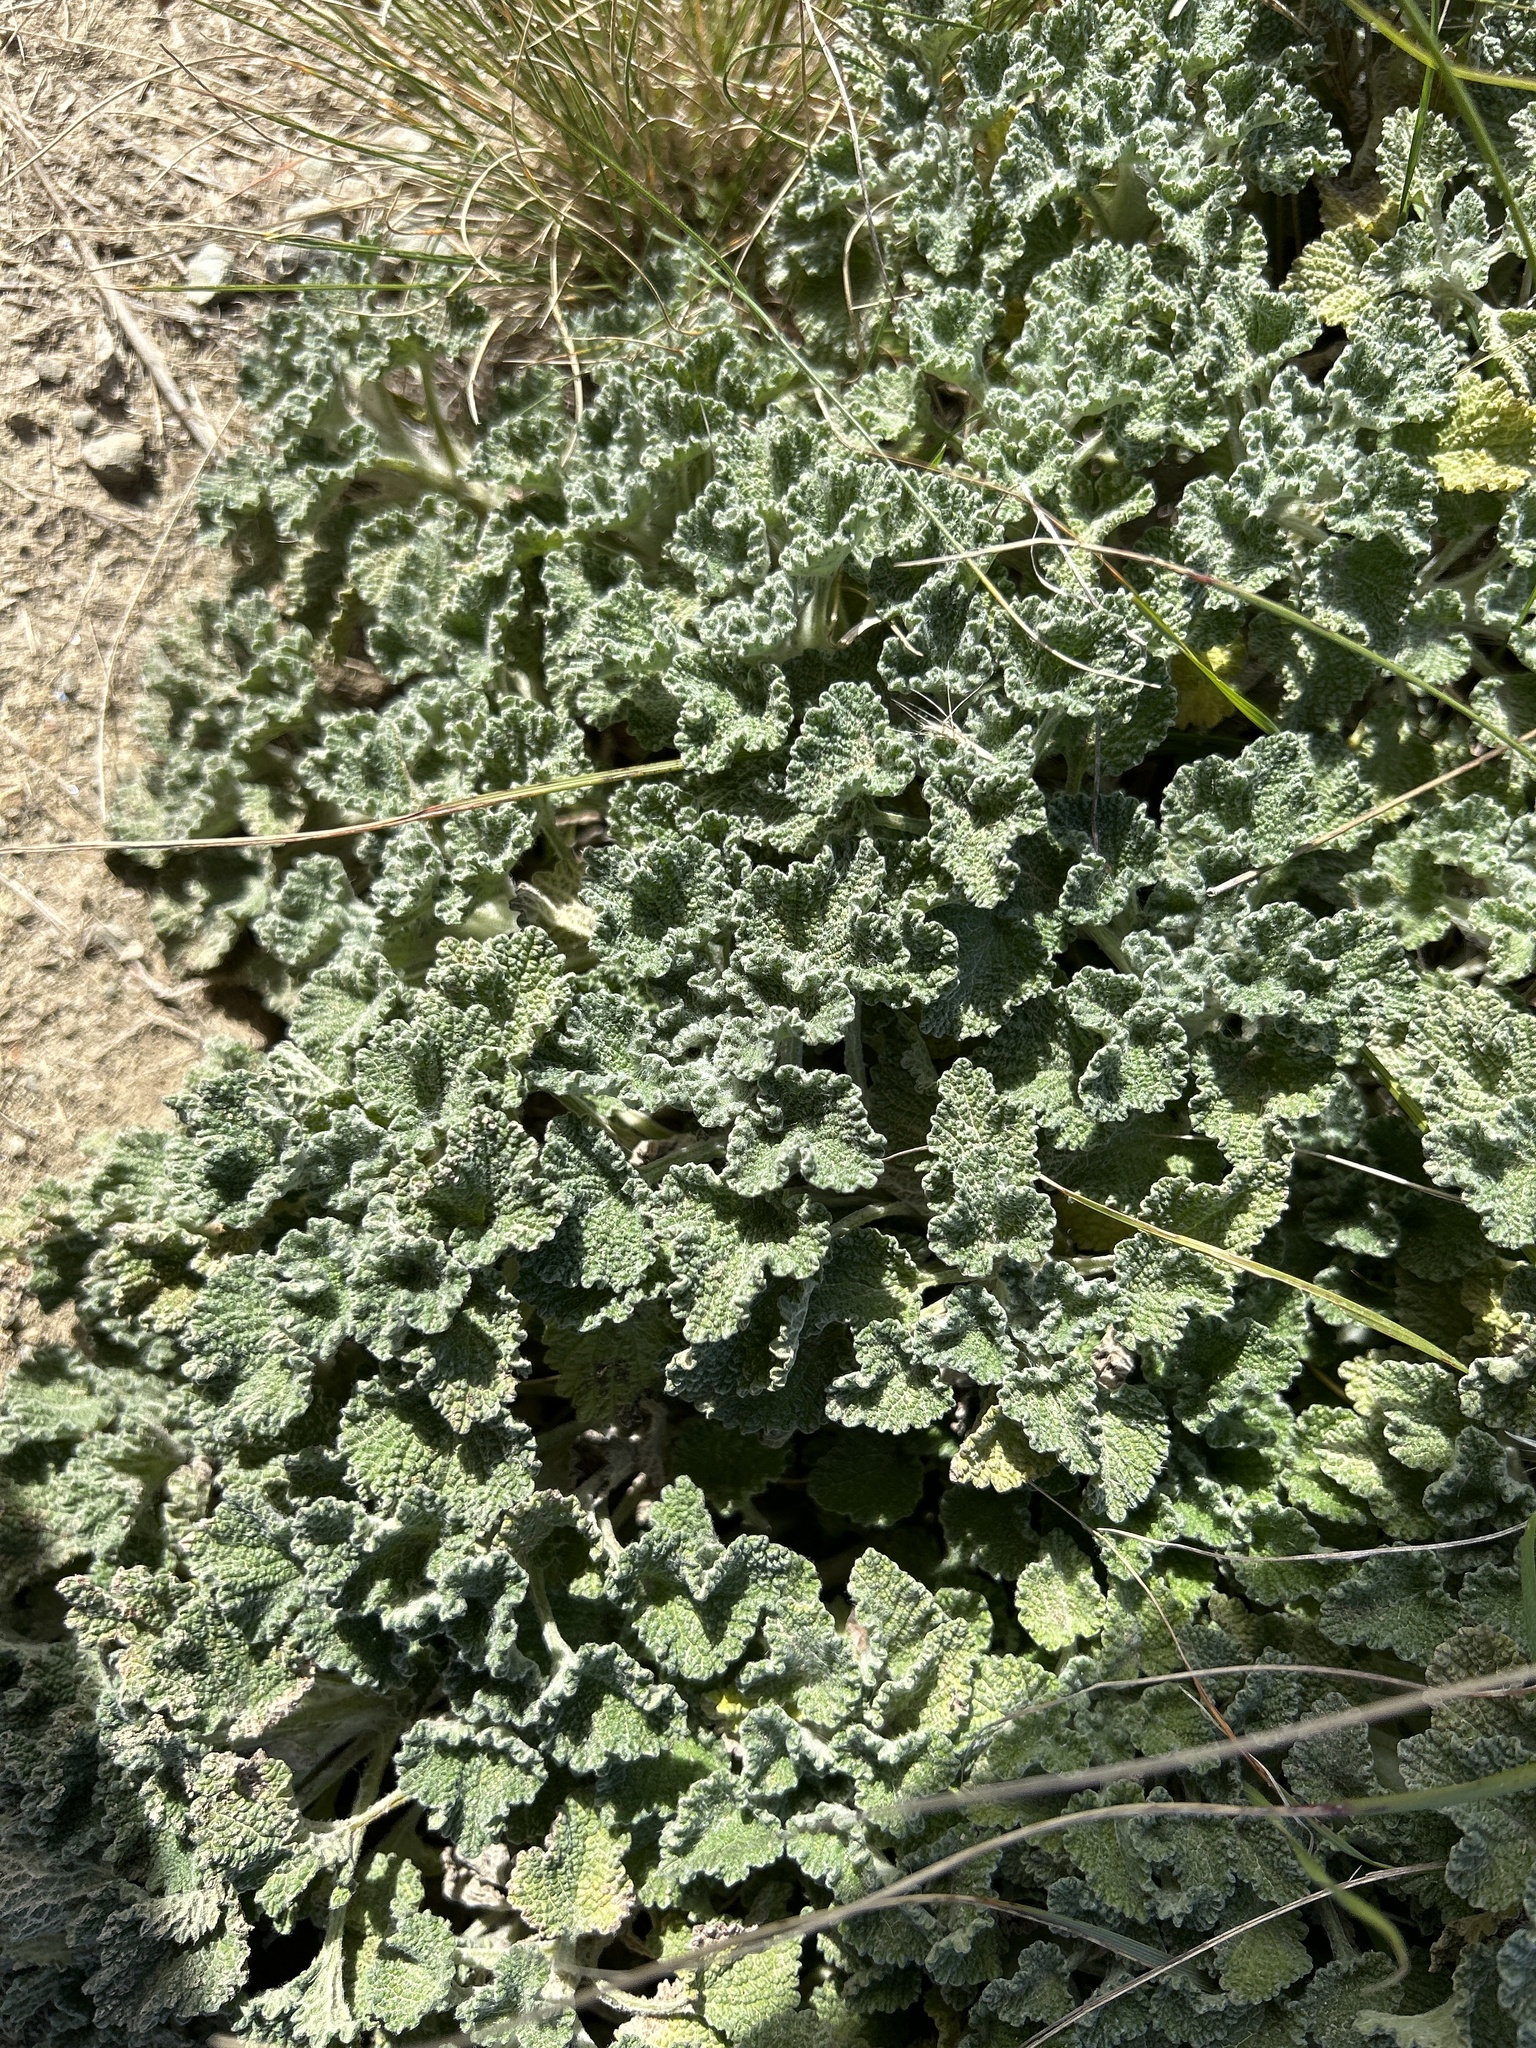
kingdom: Plantae
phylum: Tracheophyta
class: Magnoliopsida
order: Lamiales
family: Lamiaceae
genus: Marrubium
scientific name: Marrubium vulgare
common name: Horehound
